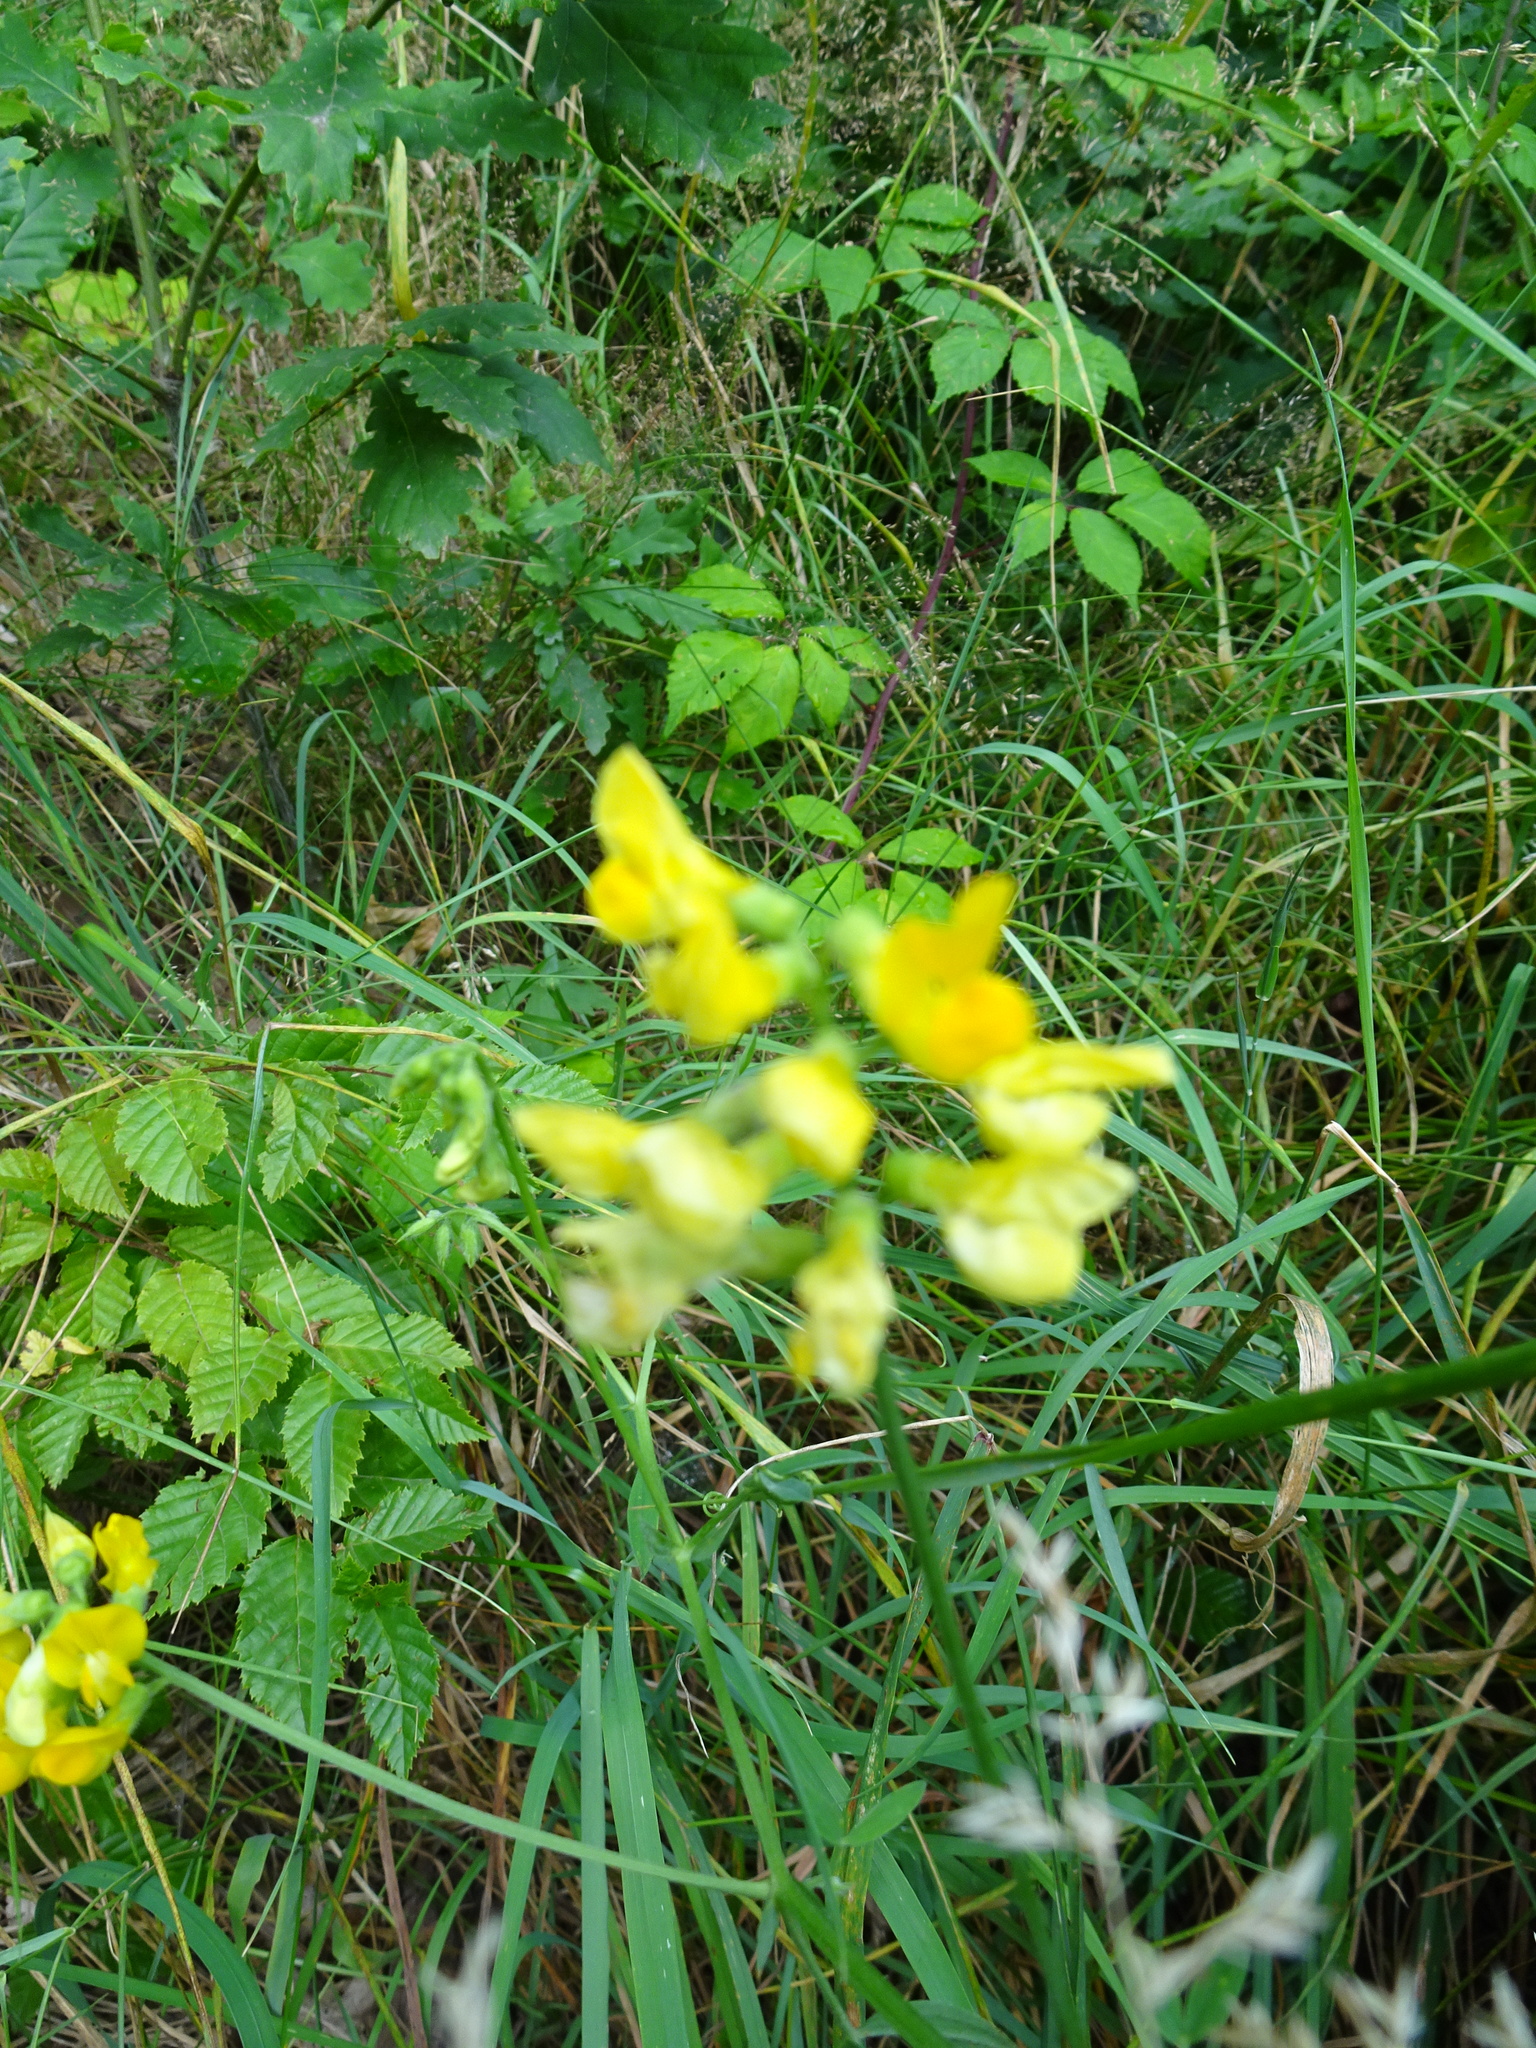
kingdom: Plantae
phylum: Tracheophyta
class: Magnoliopsida
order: Fabales
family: Fabaceae
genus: Lathyrus
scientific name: Lathyrus pratensis
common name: Meadow vetchling
